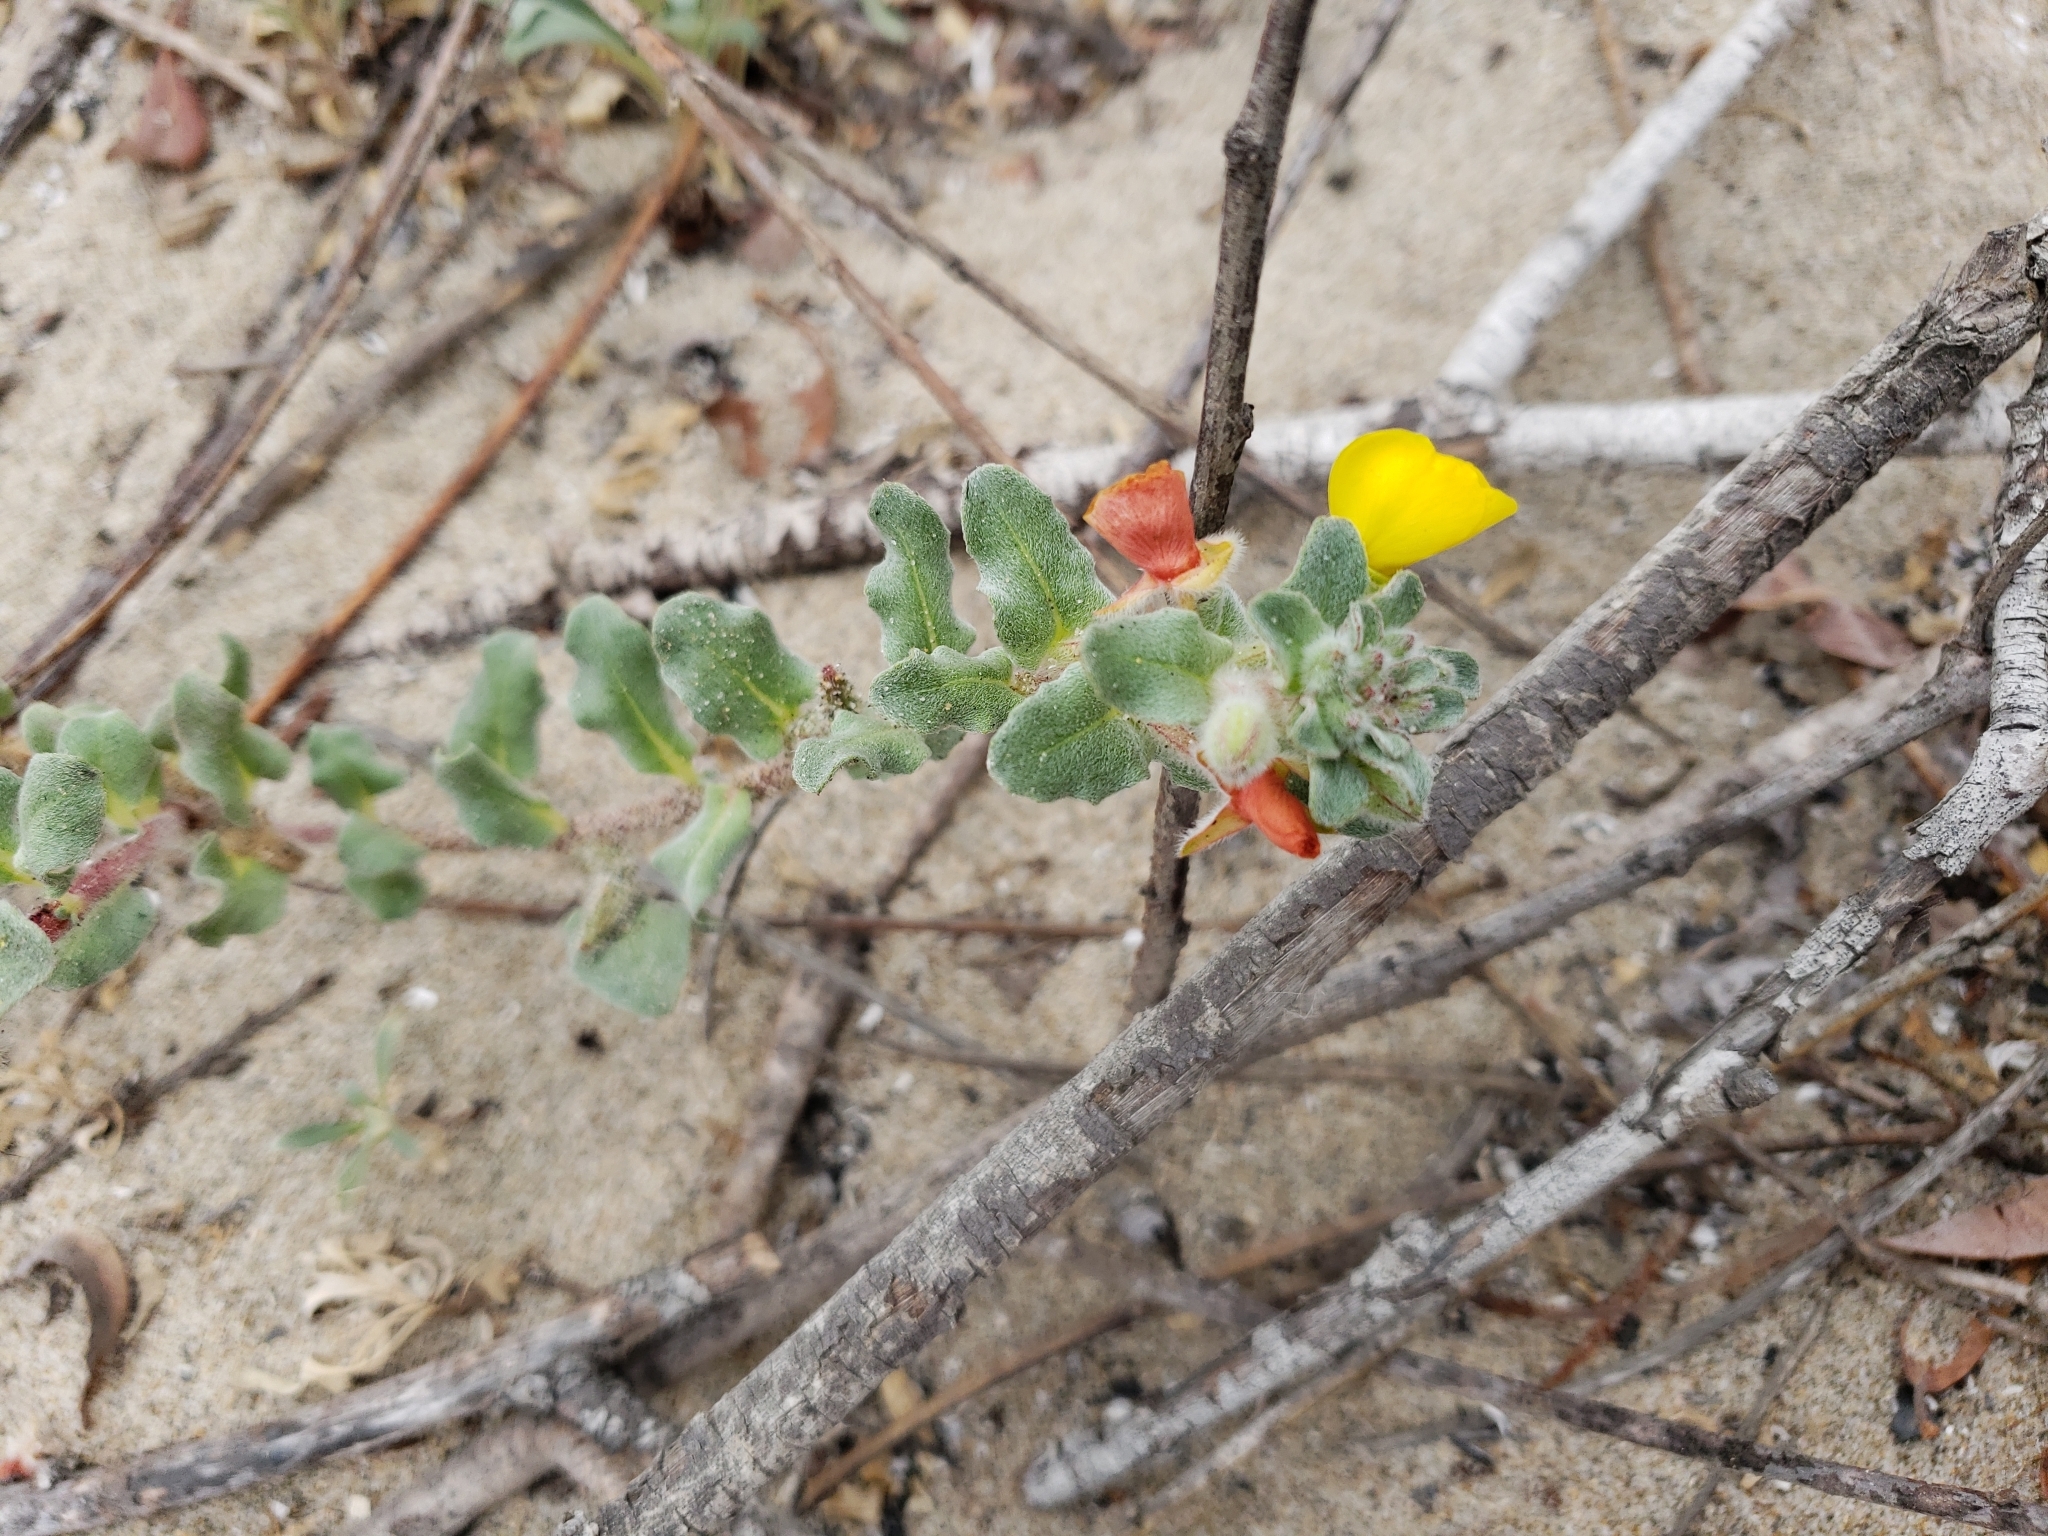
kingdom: Plantae
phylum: Tracheophyta
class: Magnoliopsida
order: Myrtales
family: Onagraceae
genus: Camissoniopsis
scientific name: Camissoniopsis cheiranthifolia
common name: Beach suncup
